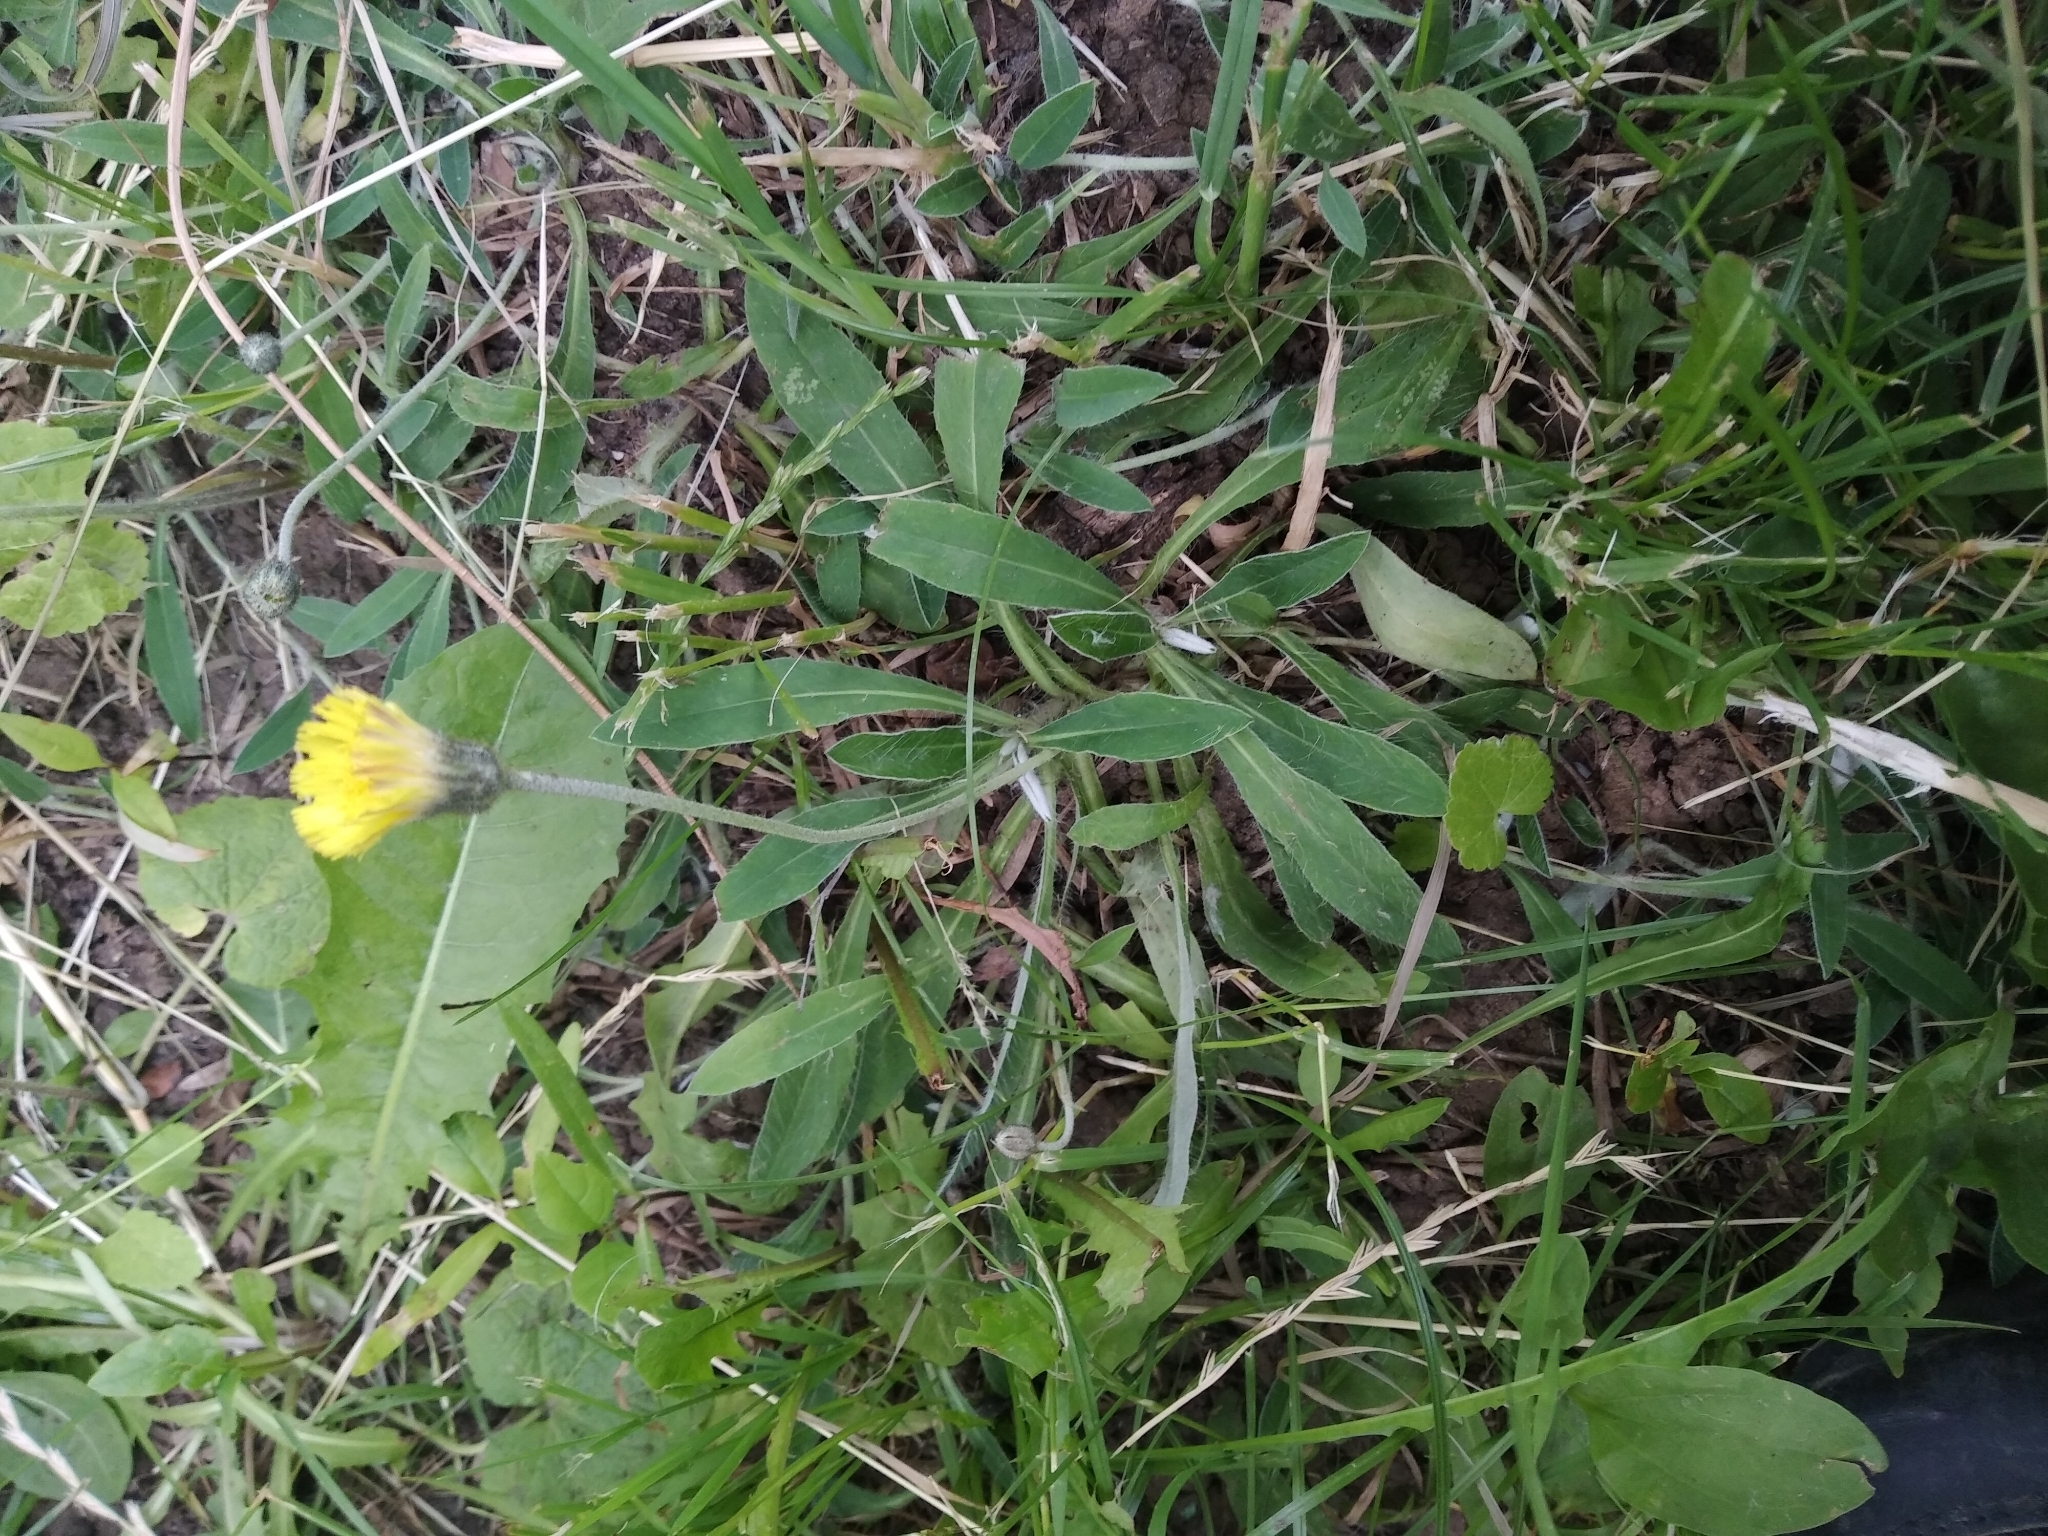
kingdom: Plantae
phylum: Tracheophyta
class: Magnoliopsida
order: Asterales
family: Asteraceae
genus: Pilosella
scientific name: Pilosella officinarum
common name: Mouse-ear hawkweed
